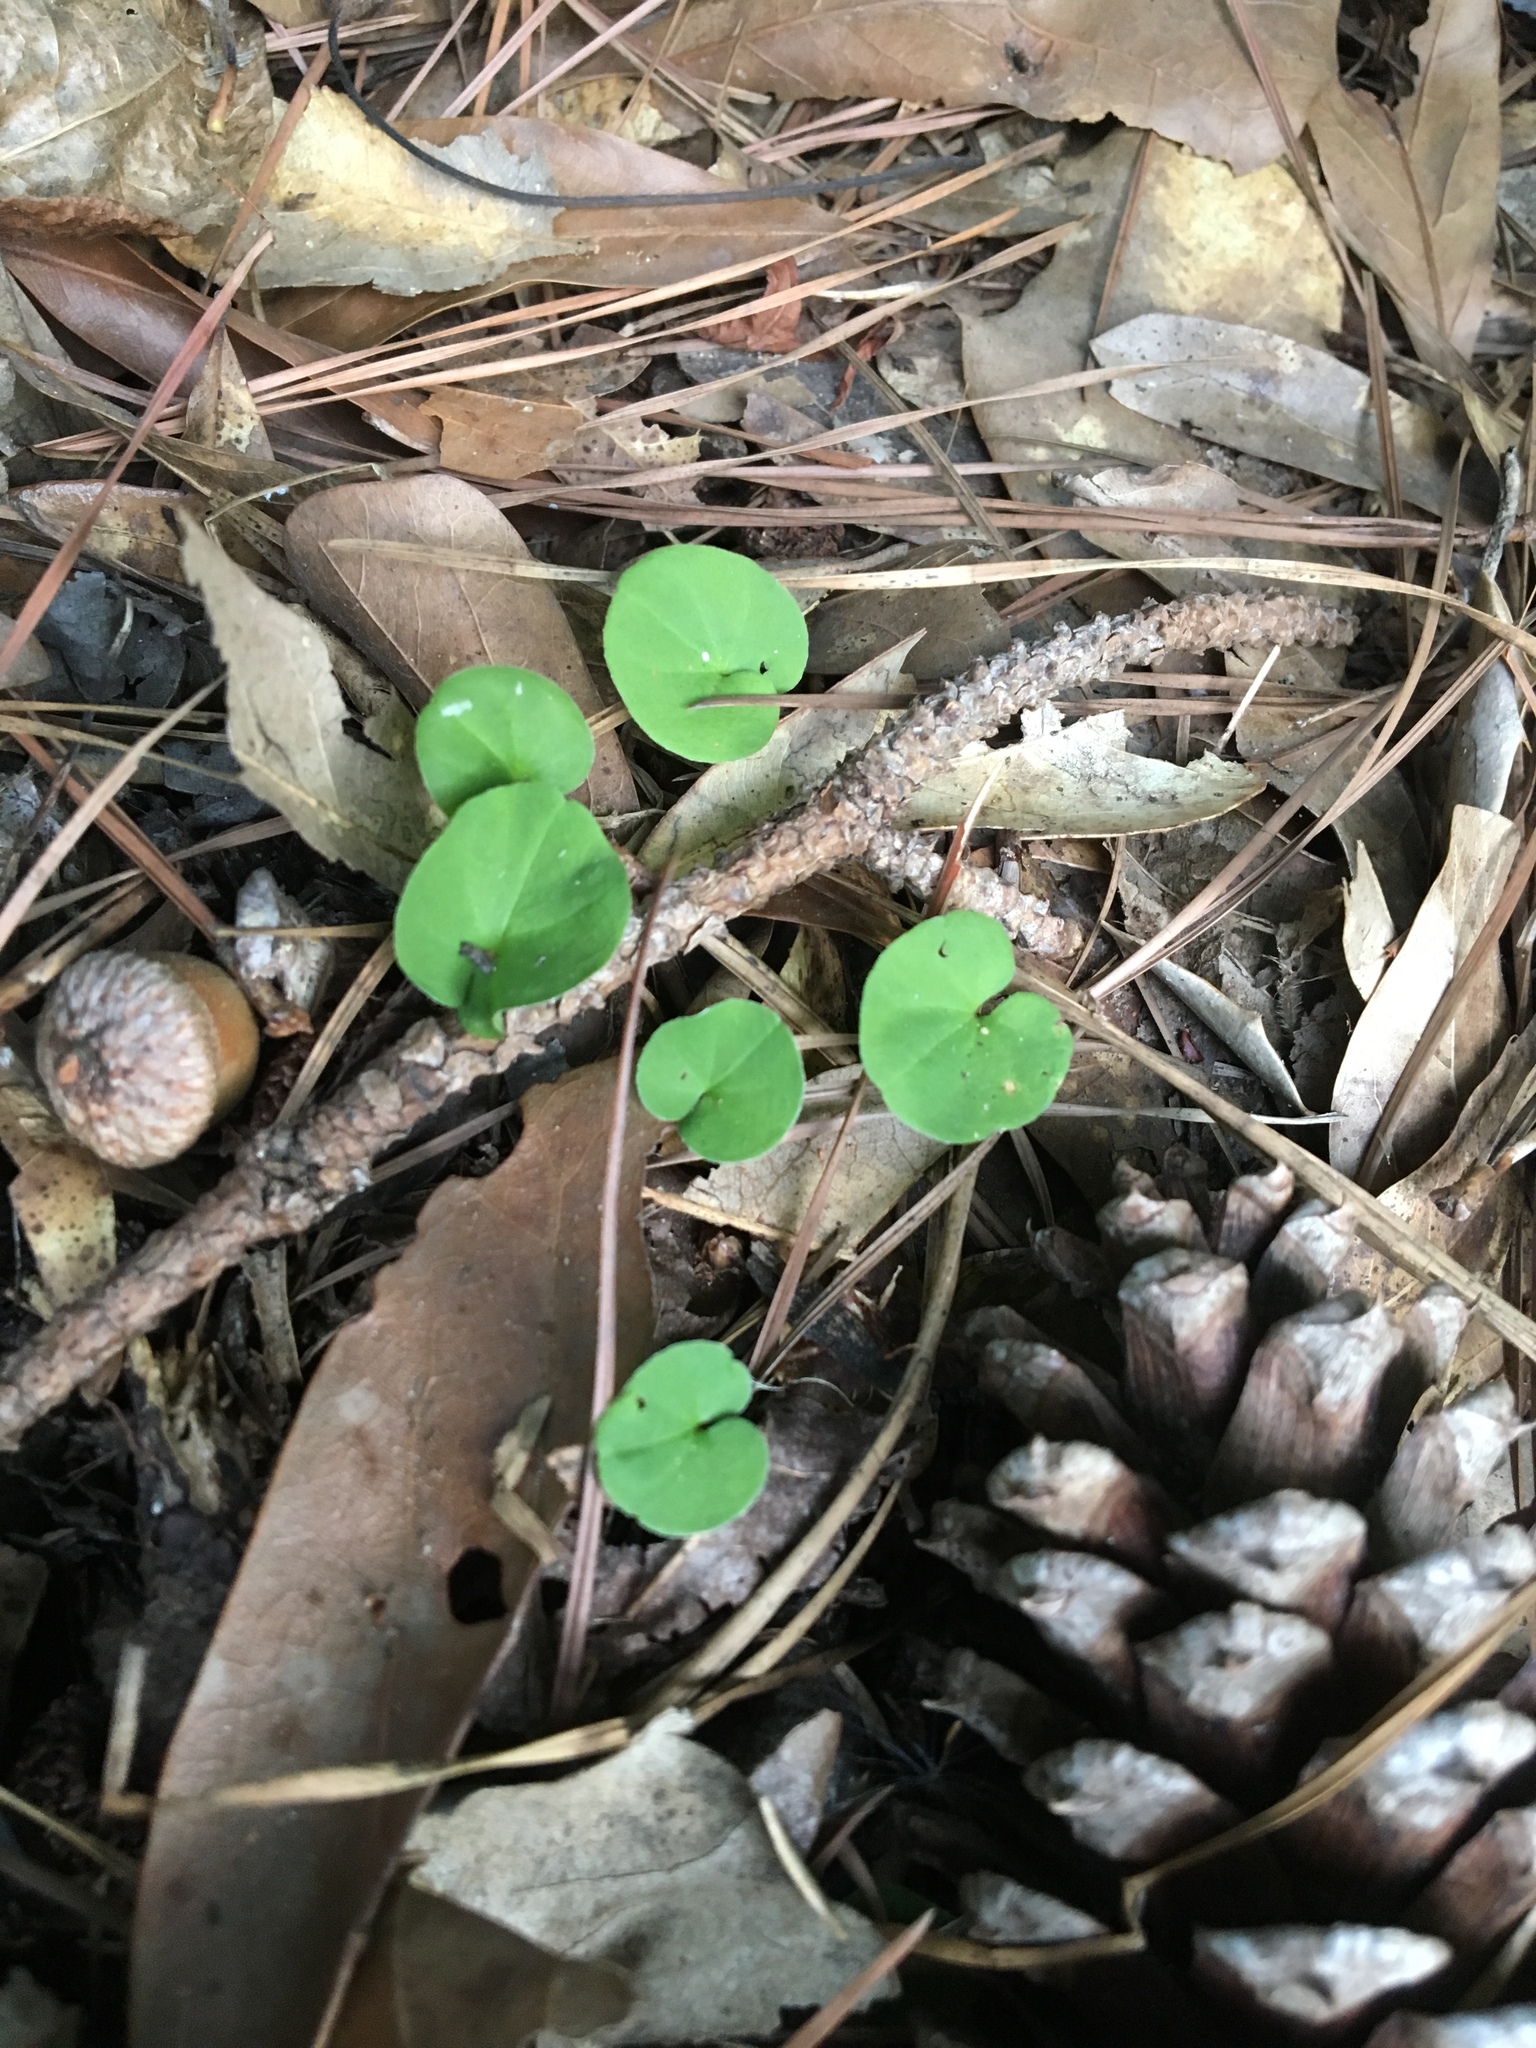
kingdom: Plantae
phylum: Tracheophyta
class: Magnoliopsida
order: Solanales
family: Convolvulaceae
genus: Dichondra
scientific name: Dichondra carolinensis
